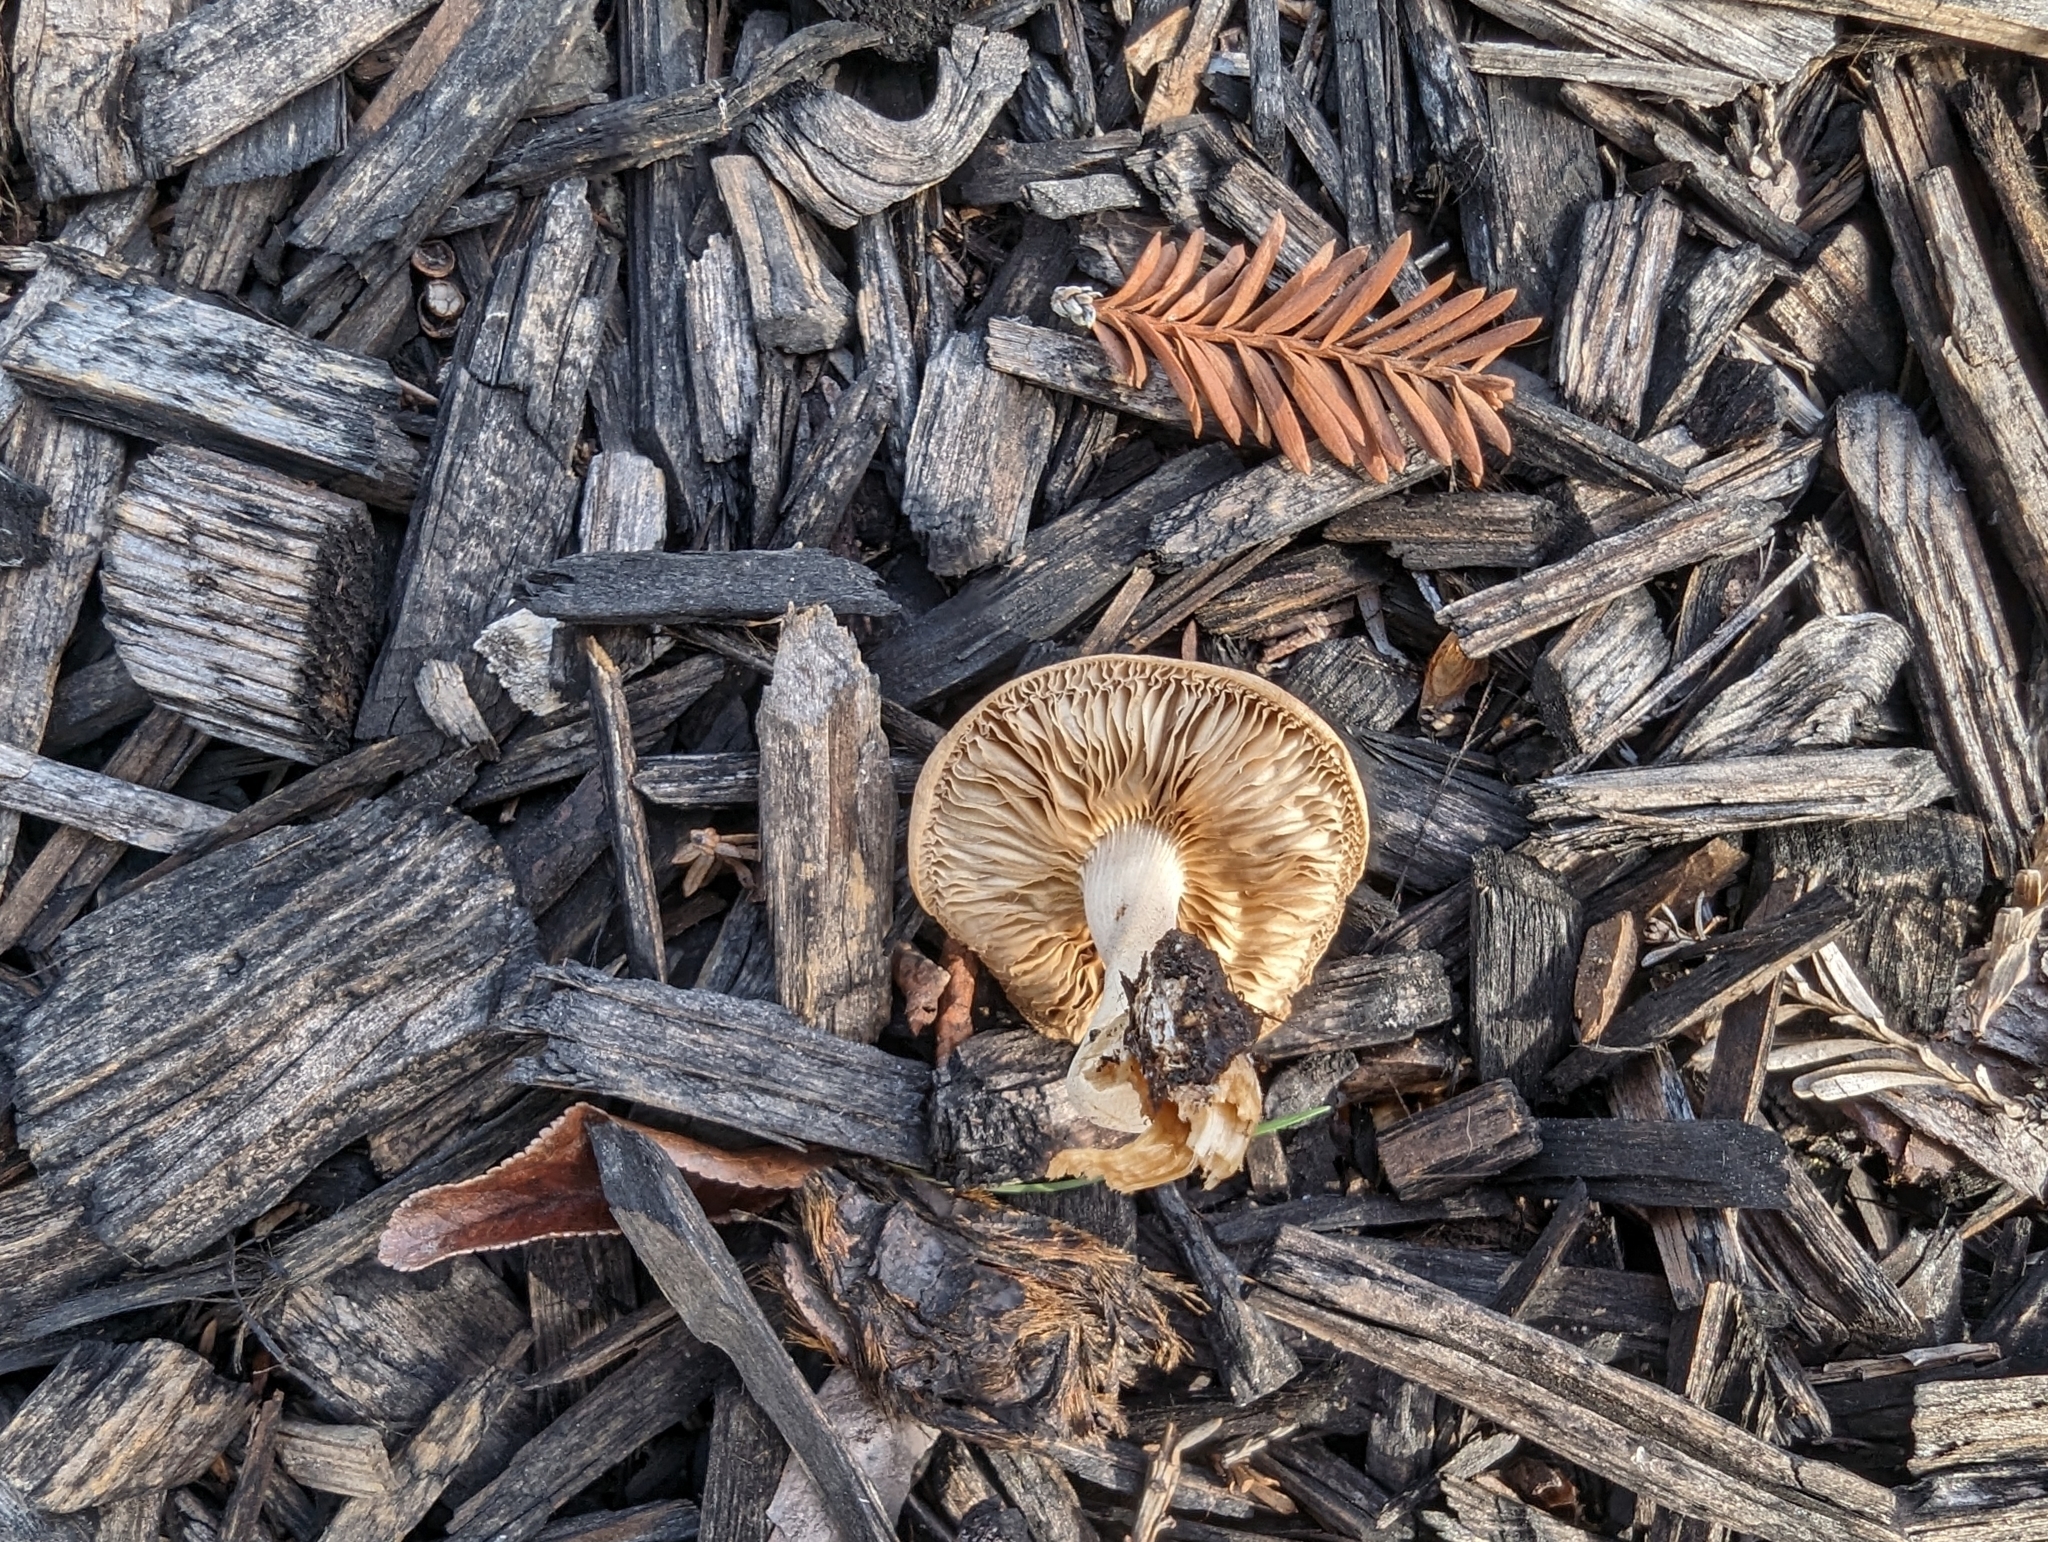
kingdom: Fungi
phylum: Basidiomycota
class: Agaricomycetes
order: Agaricales
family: Strophariaceae
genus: Agrocybe
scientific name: Agrocybe putaminum
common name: Mulch fieldcap
